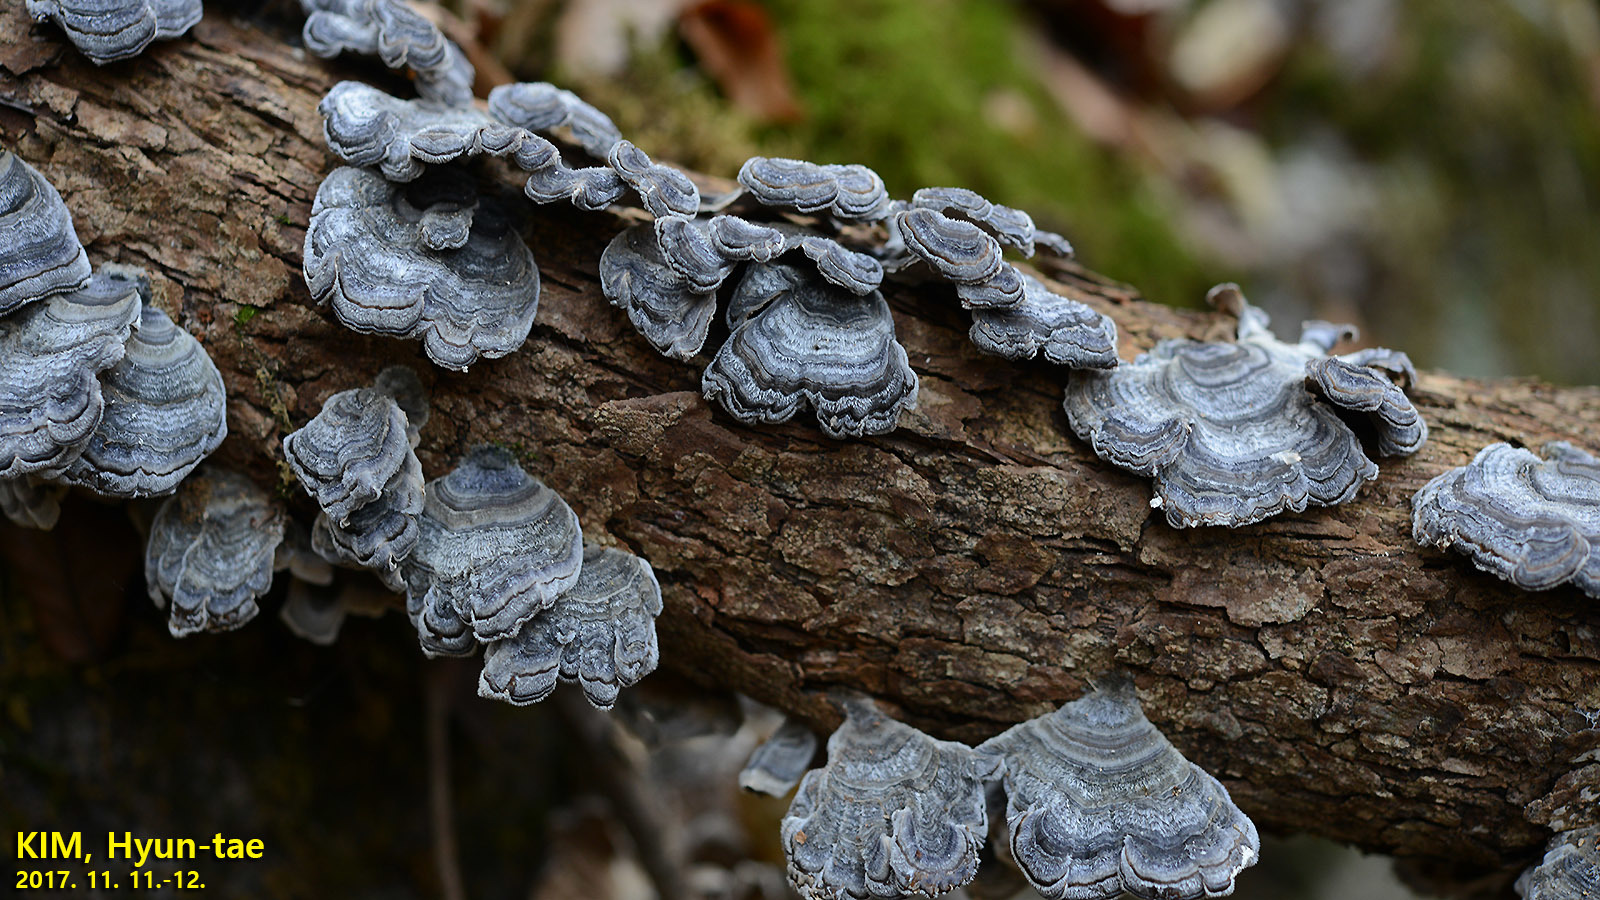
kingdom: Fungi
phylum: Basidiomycota
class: Agaricomycetes
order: Polyporales
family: Polyporaceae
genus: Trametes
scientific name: Trametes versicolor
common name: Turkeytail
